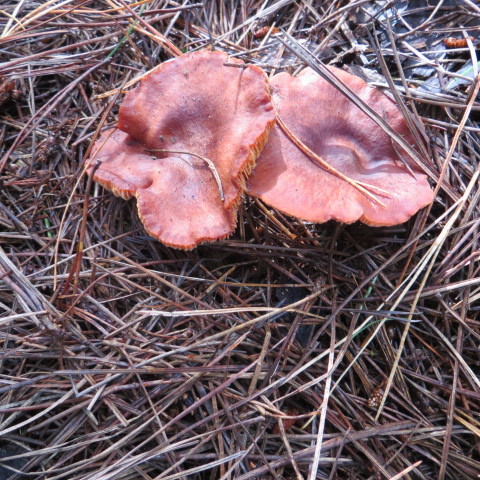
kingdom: Fungi
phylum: Basidiomycota
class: Agaricomycetes
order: Russulales
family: Russulaceae
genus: Lactarius
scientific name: Lactarius rufus
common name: Rufous milk-cap
